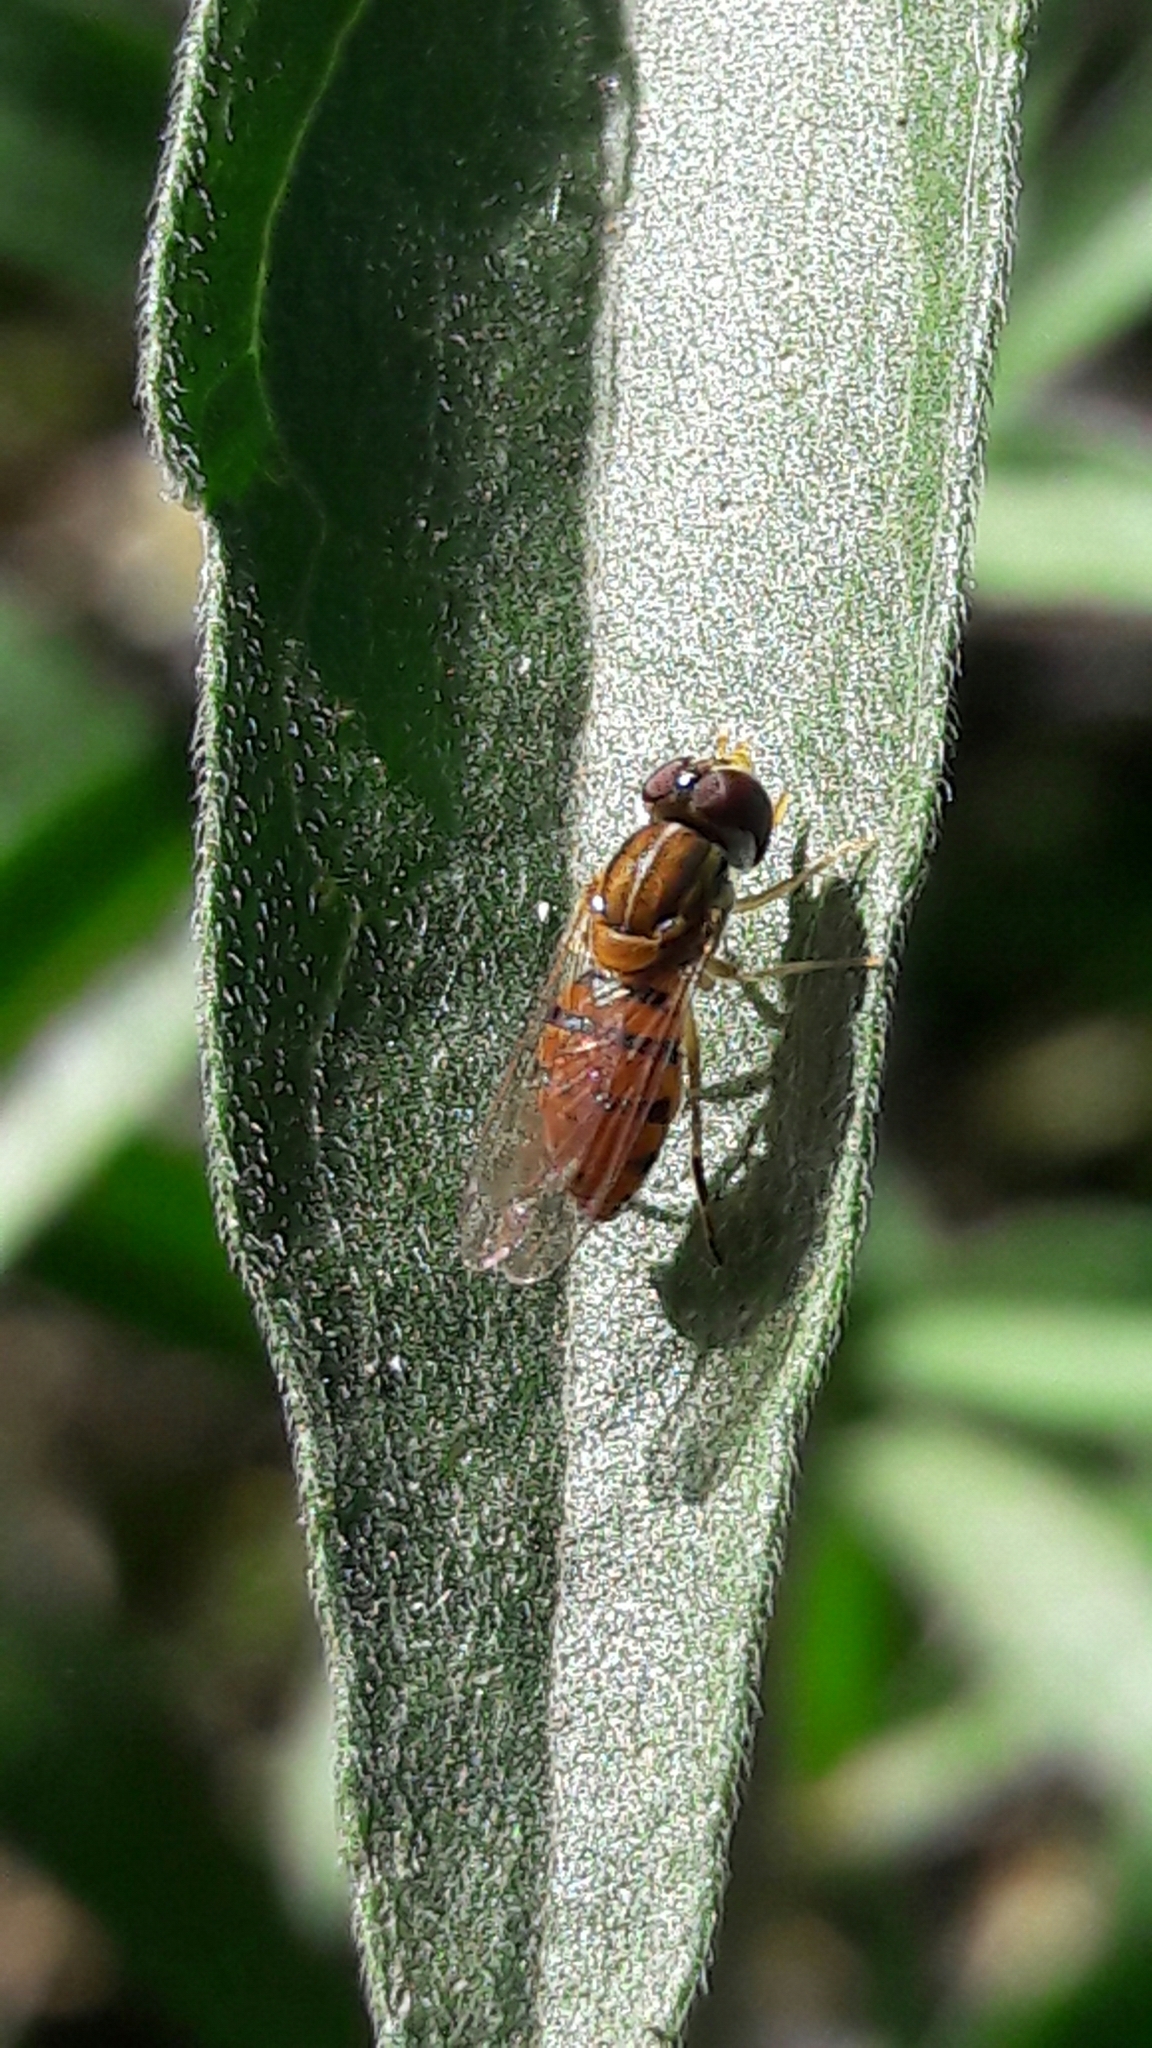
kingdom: Animalia
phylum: Arthropoda
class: Insecta
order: Diptera
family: Syrphidae
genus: Toxomerus
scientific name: Toxomerus
